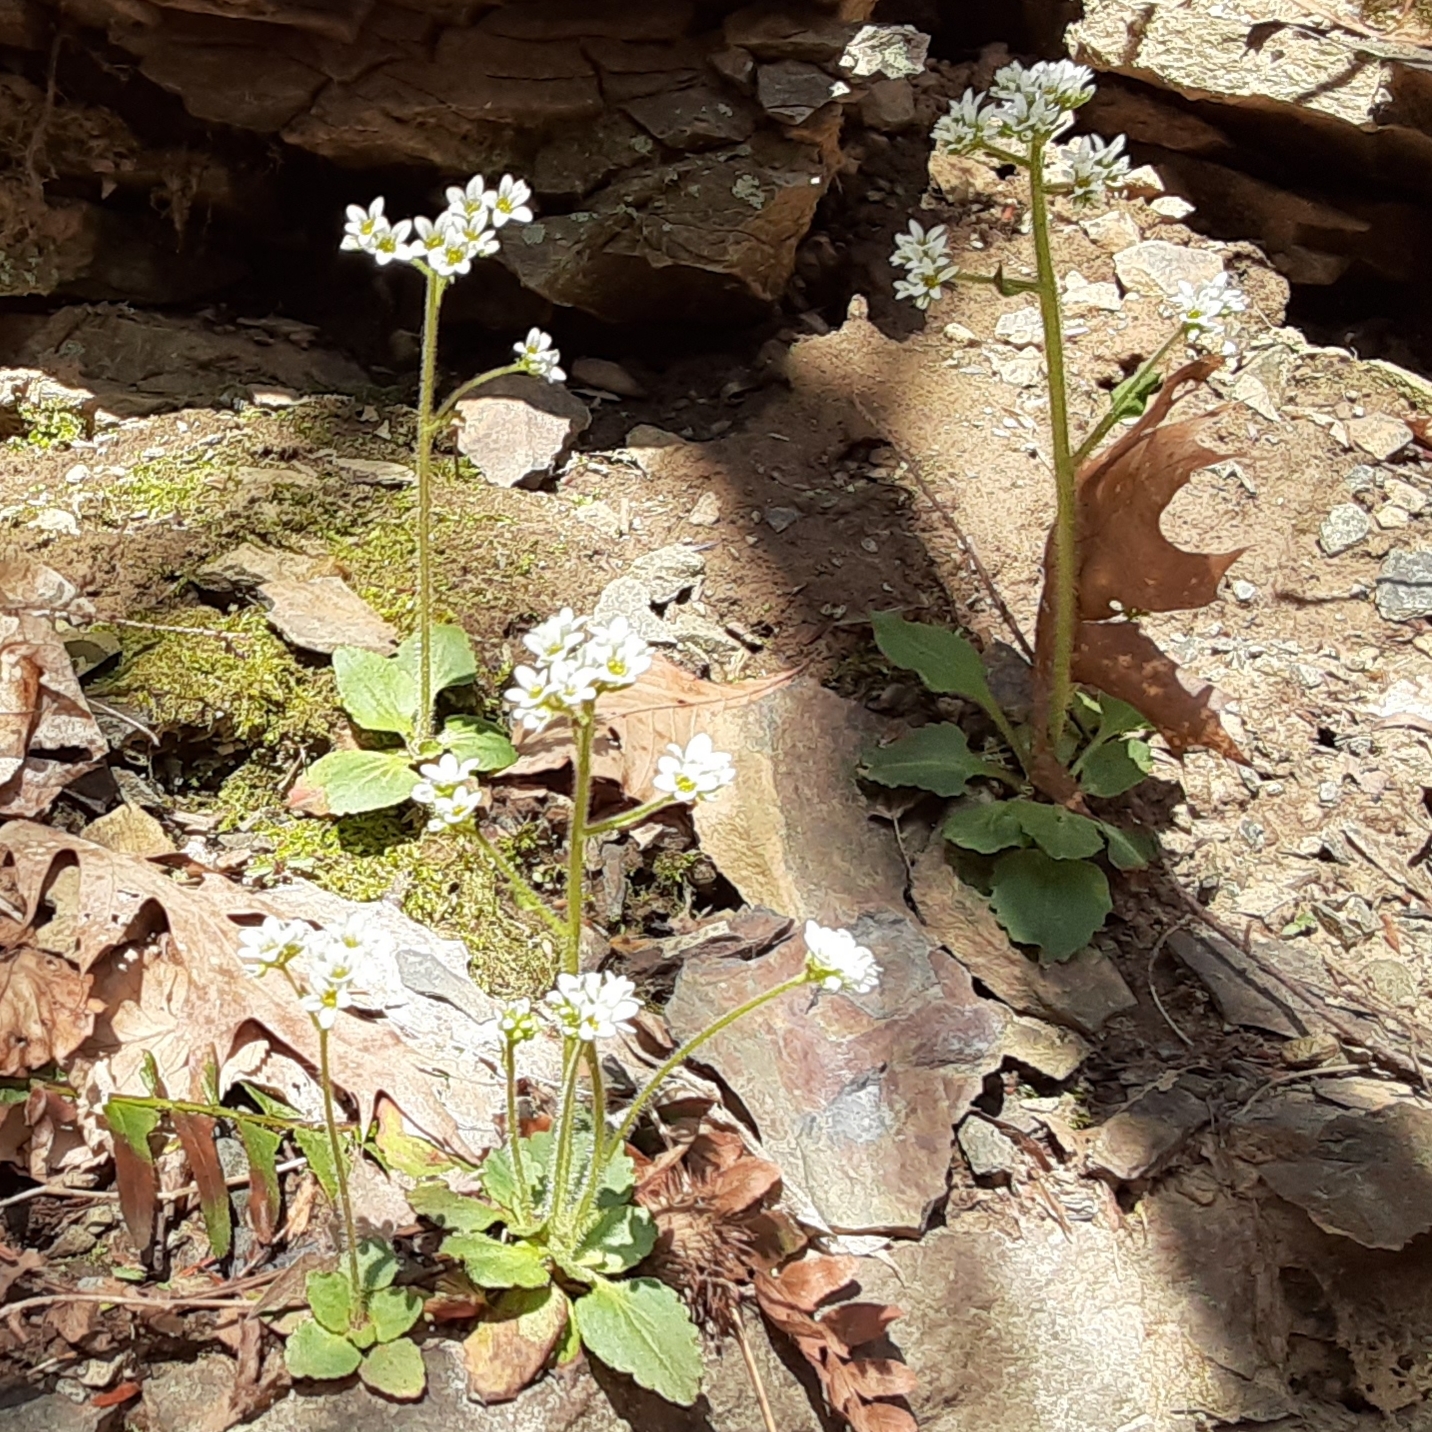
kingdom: Plantae
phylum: Tracheophyta
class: Magnoliopsida
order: Saxifragales
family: Saxifragaceae
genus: Micranthes
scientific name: Micranthes virginiensis
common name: Early saxifrage
